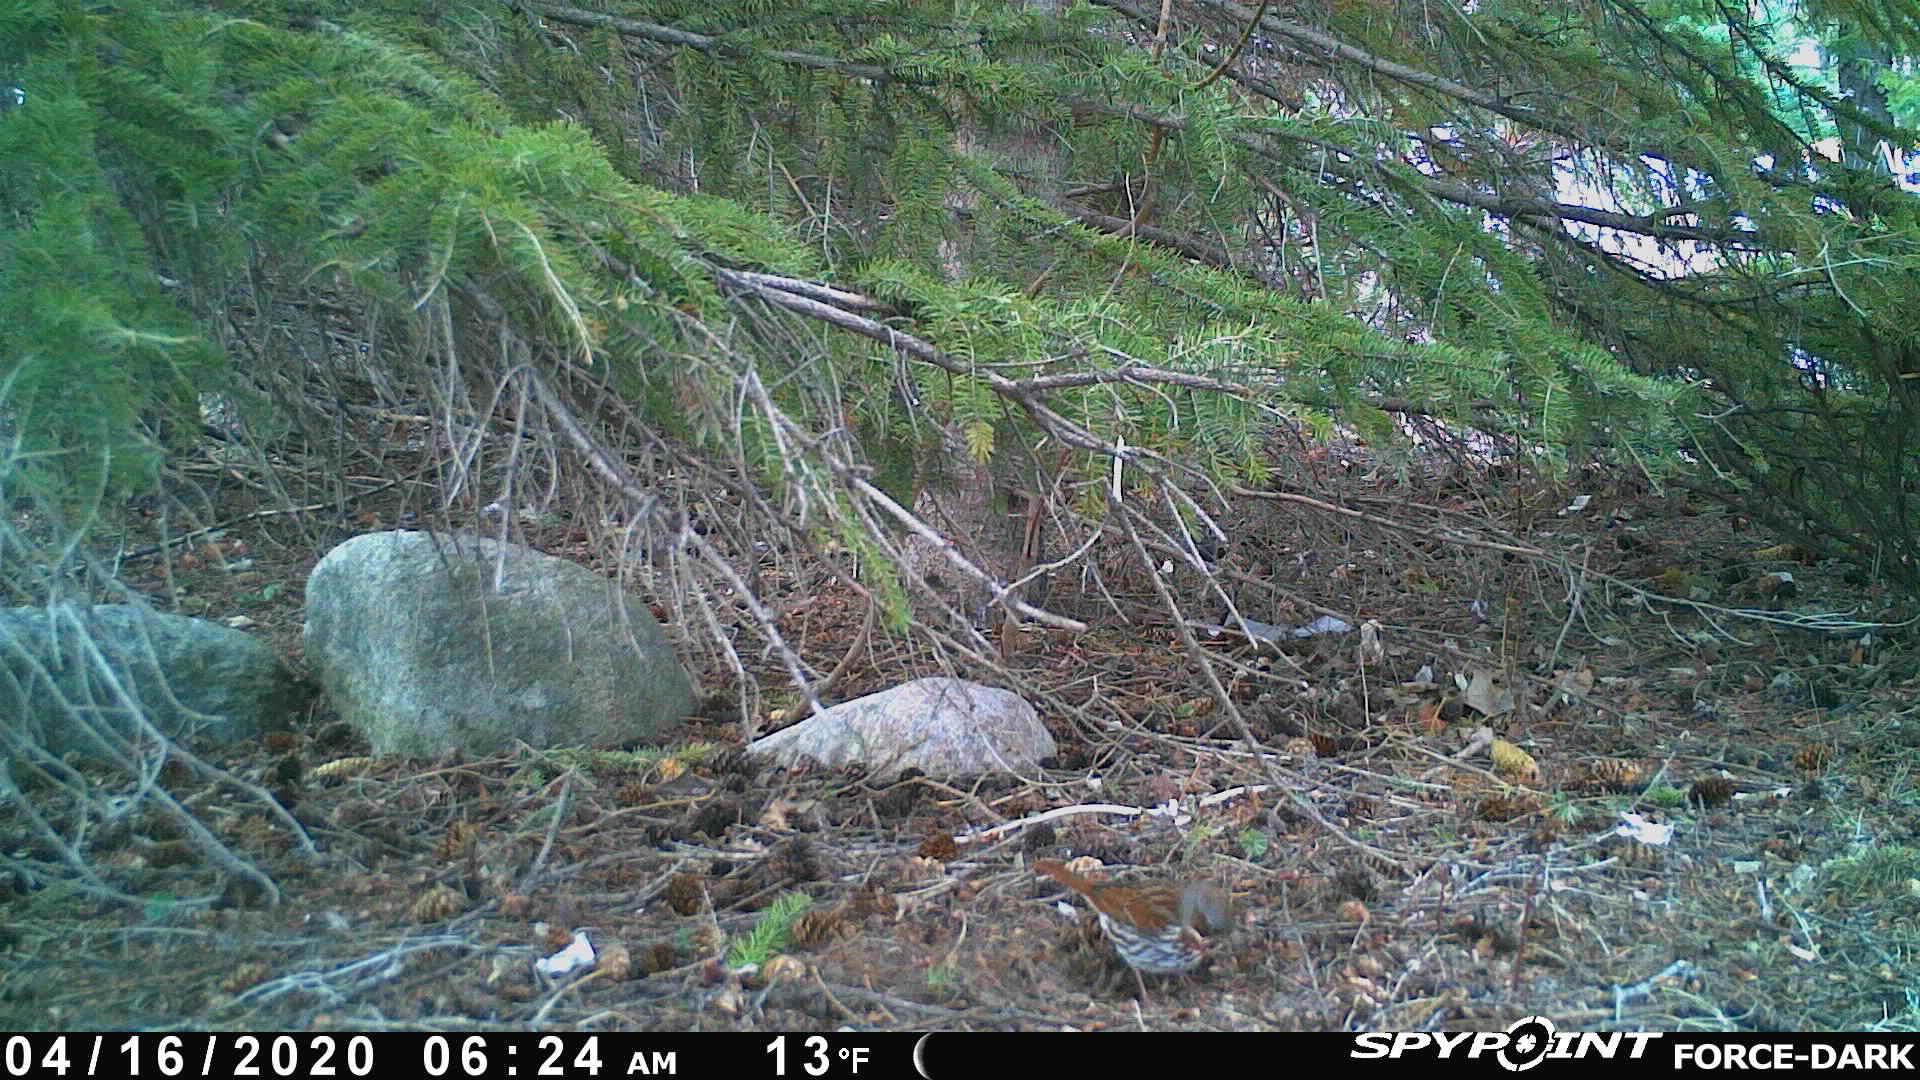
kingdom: Animalia
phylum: Chordata
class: Aves
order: Passeriformes
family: Passerellidae
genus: Passerella
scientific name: Passerella iliaca
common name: Fox sparrow
